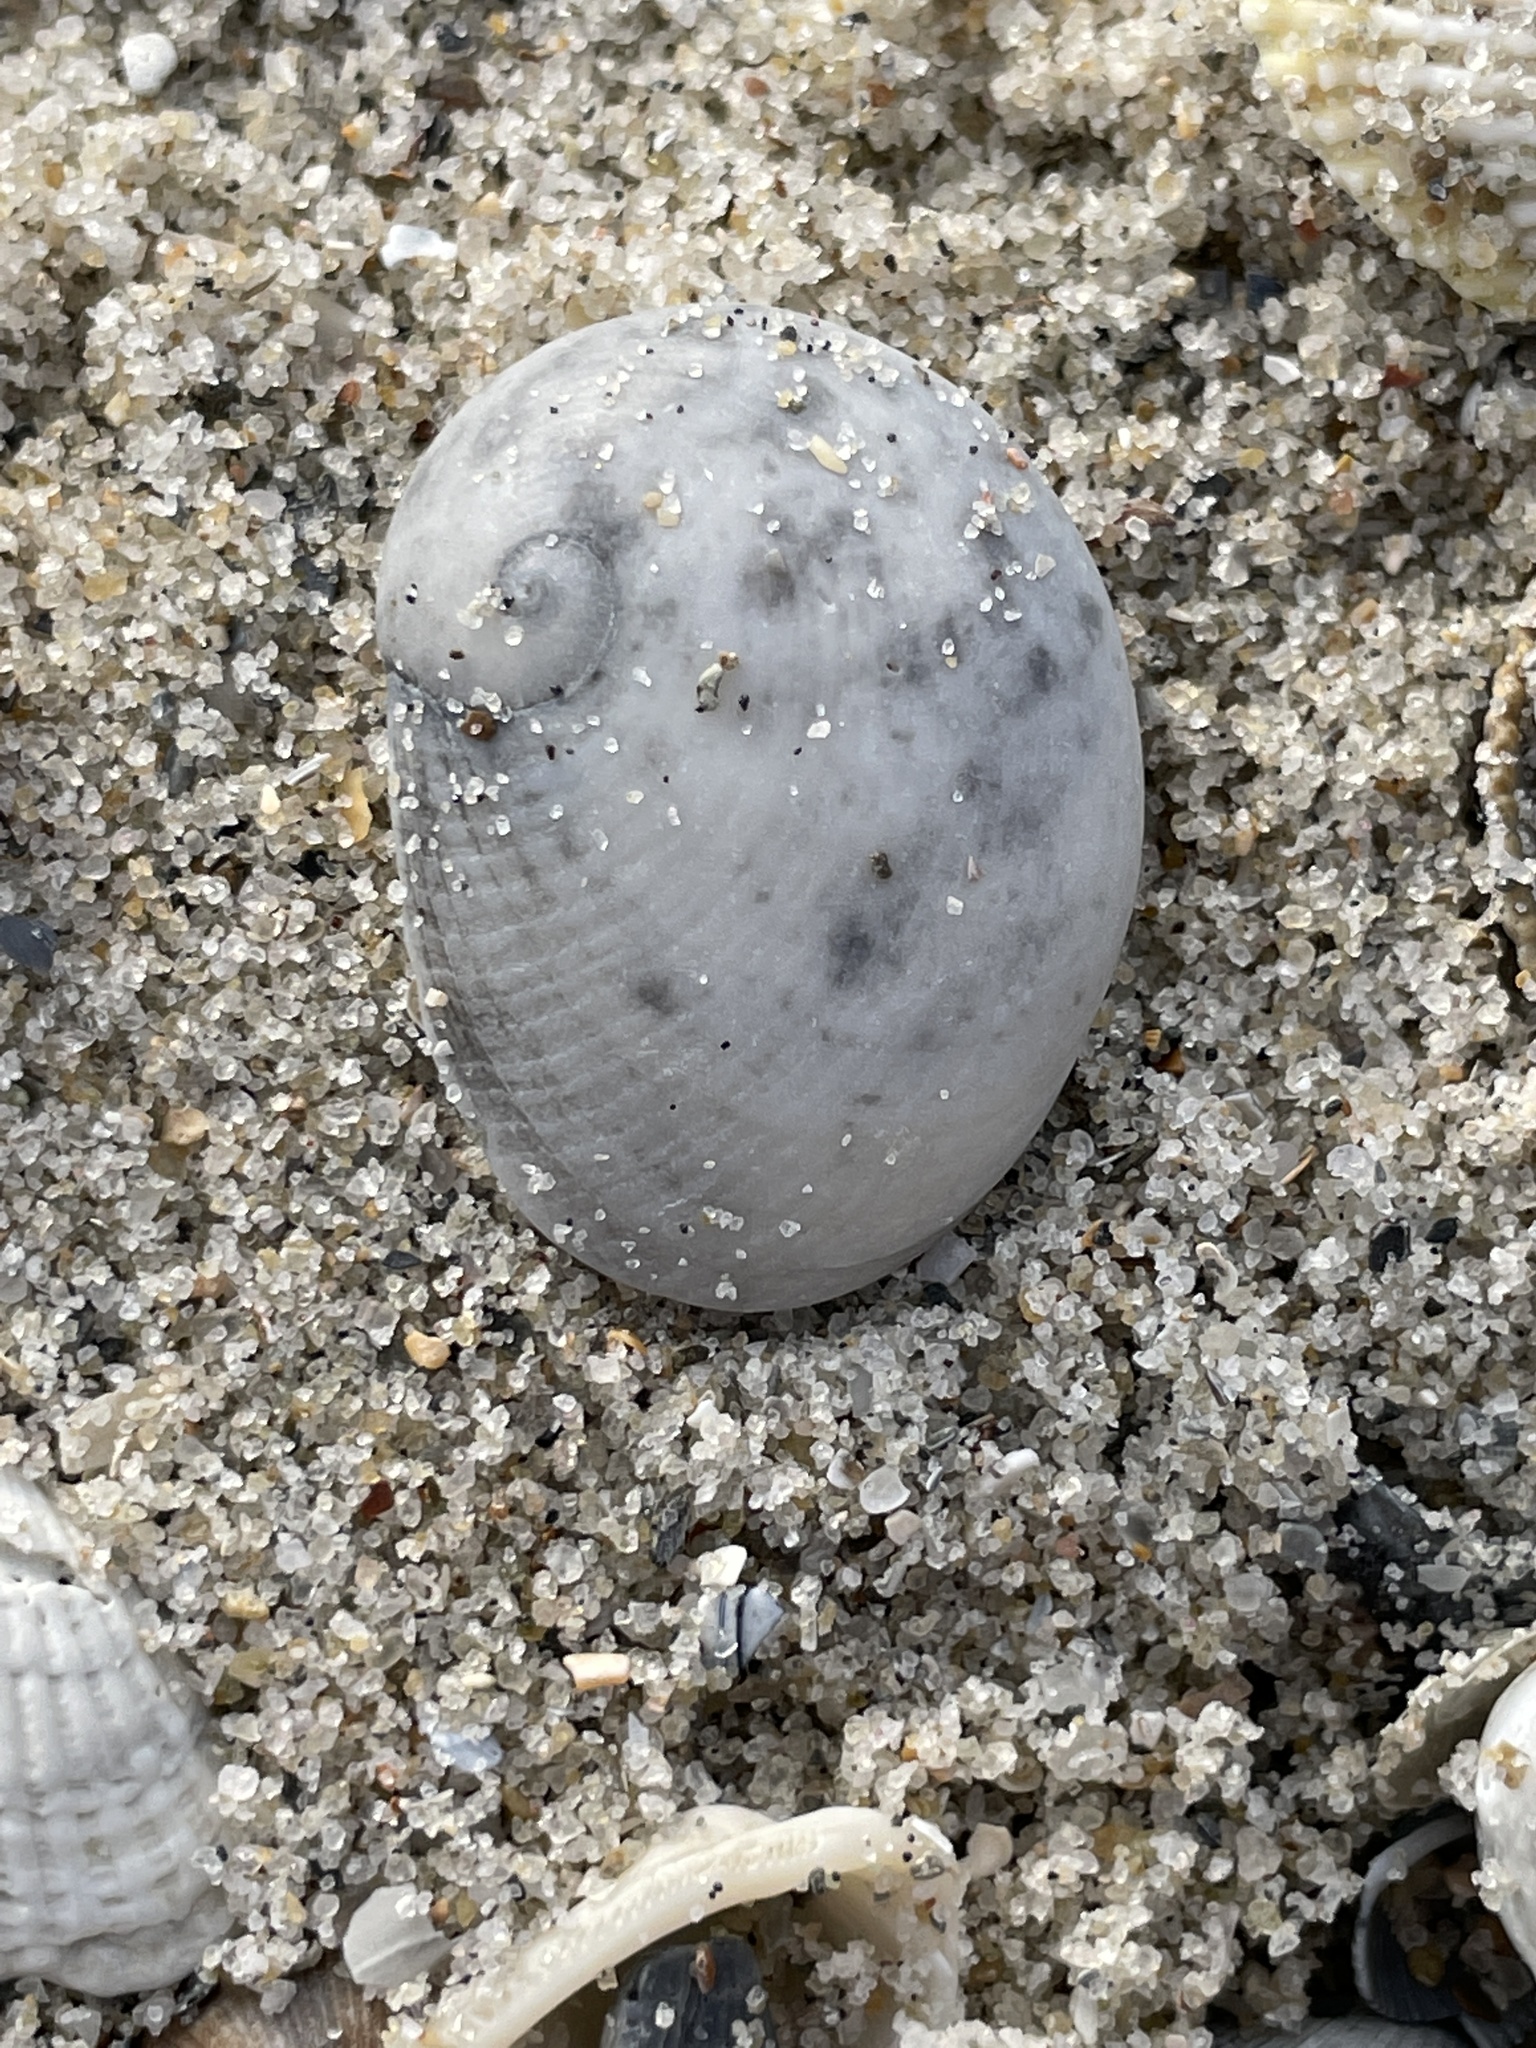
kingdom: Animalia
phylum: Mollusca
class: Gastropoda
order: Littorinimorpha
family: Naticidae
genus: Sinum
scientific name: Sinum perspectivum
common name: White baby ear
